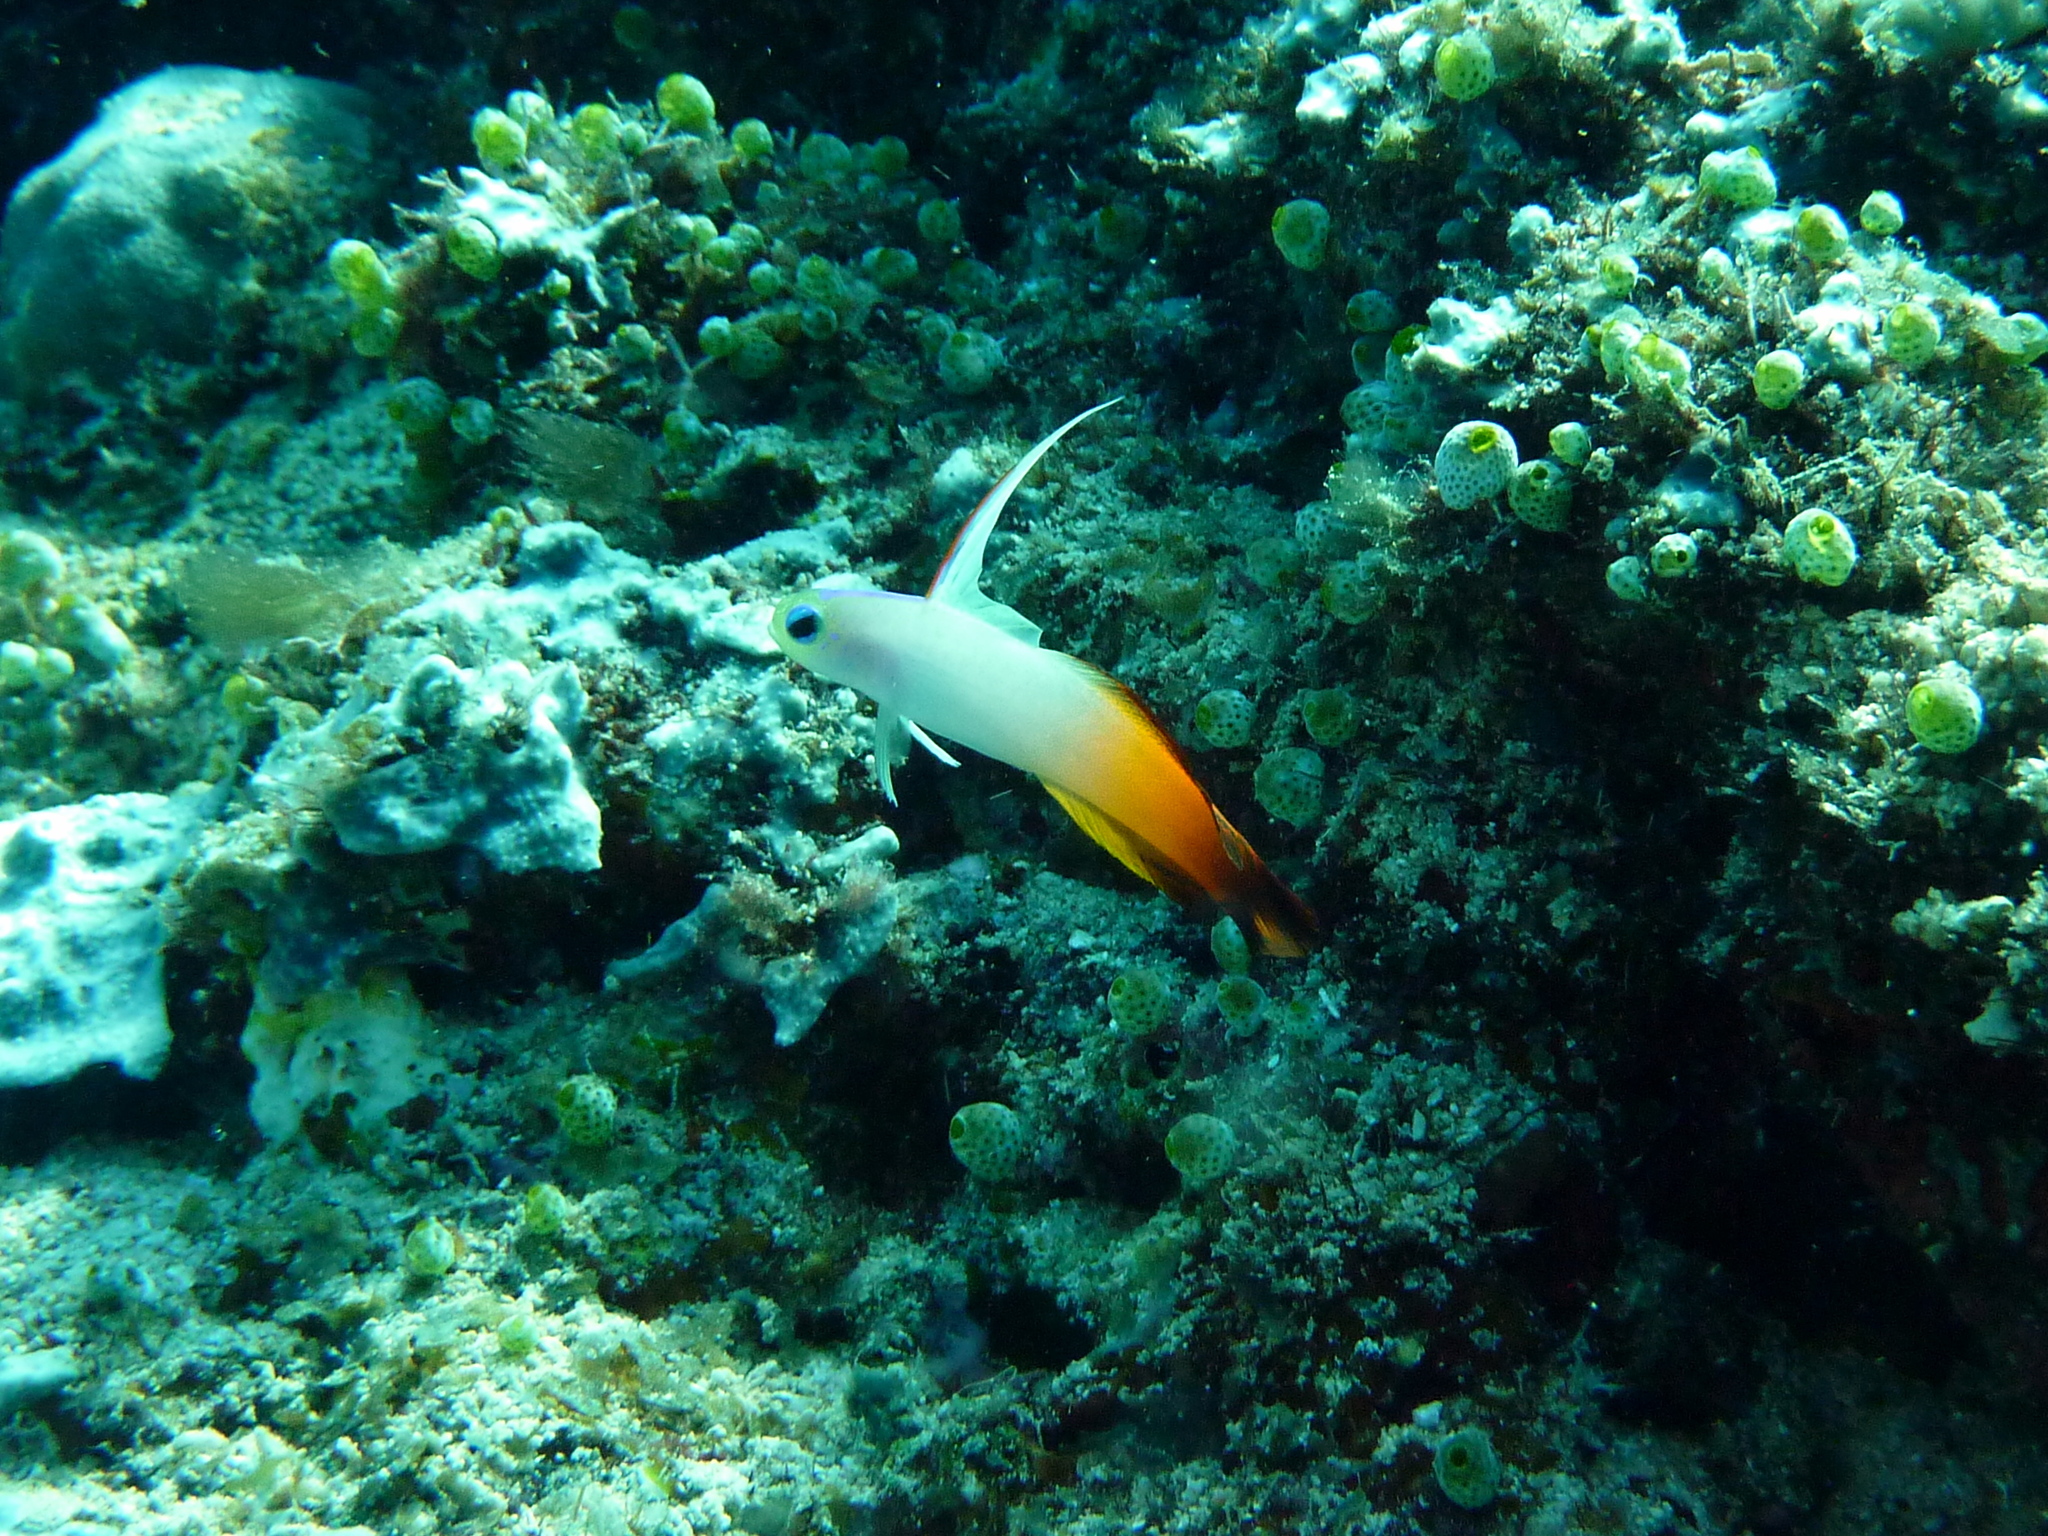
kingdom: Animalia
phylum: Chordata
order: Perciformes
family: Microdesmidae
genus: Nemateleotris
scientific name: Nemateleotris magnifica
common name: Fire goby
